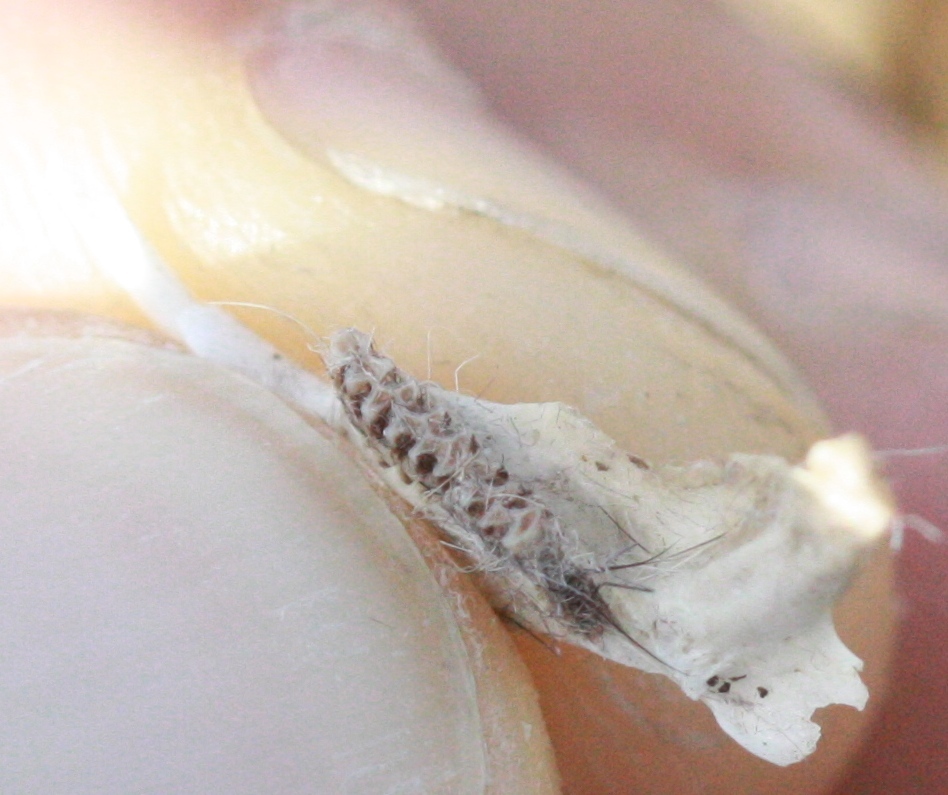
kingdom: Animalia
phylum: Chordata
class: Mammalia
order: Rodentia
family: Cricetidae
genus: Microtus
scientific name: Microtus
